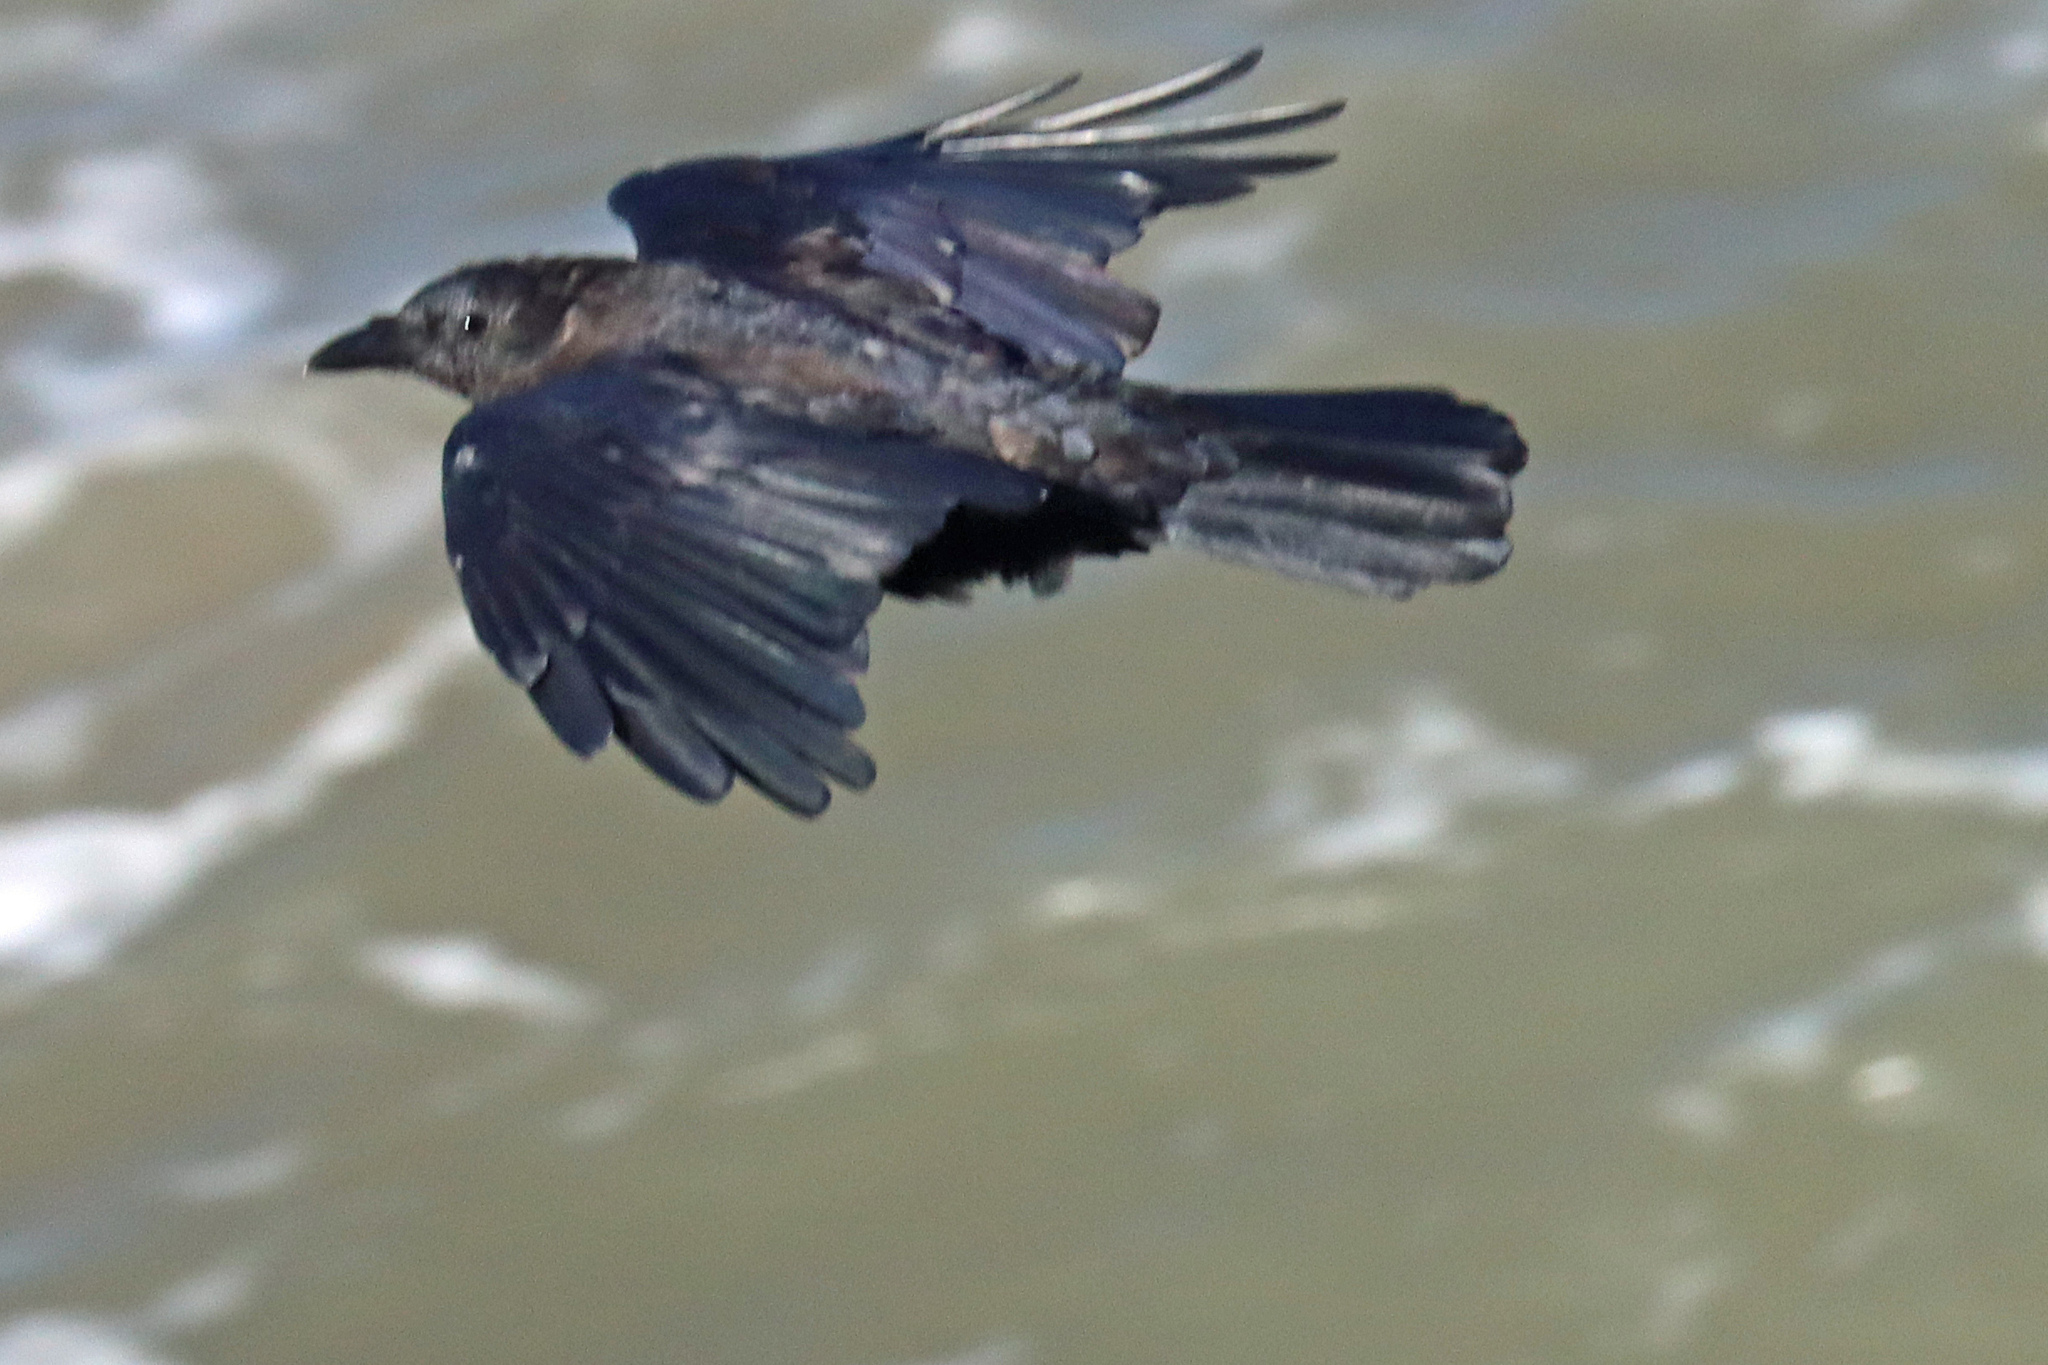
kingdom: Animalia
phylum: Chordata
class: Aves
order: Passeriformes
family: Corvidae
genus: Corvus
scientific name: Corvus corone
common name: Carrion crow
